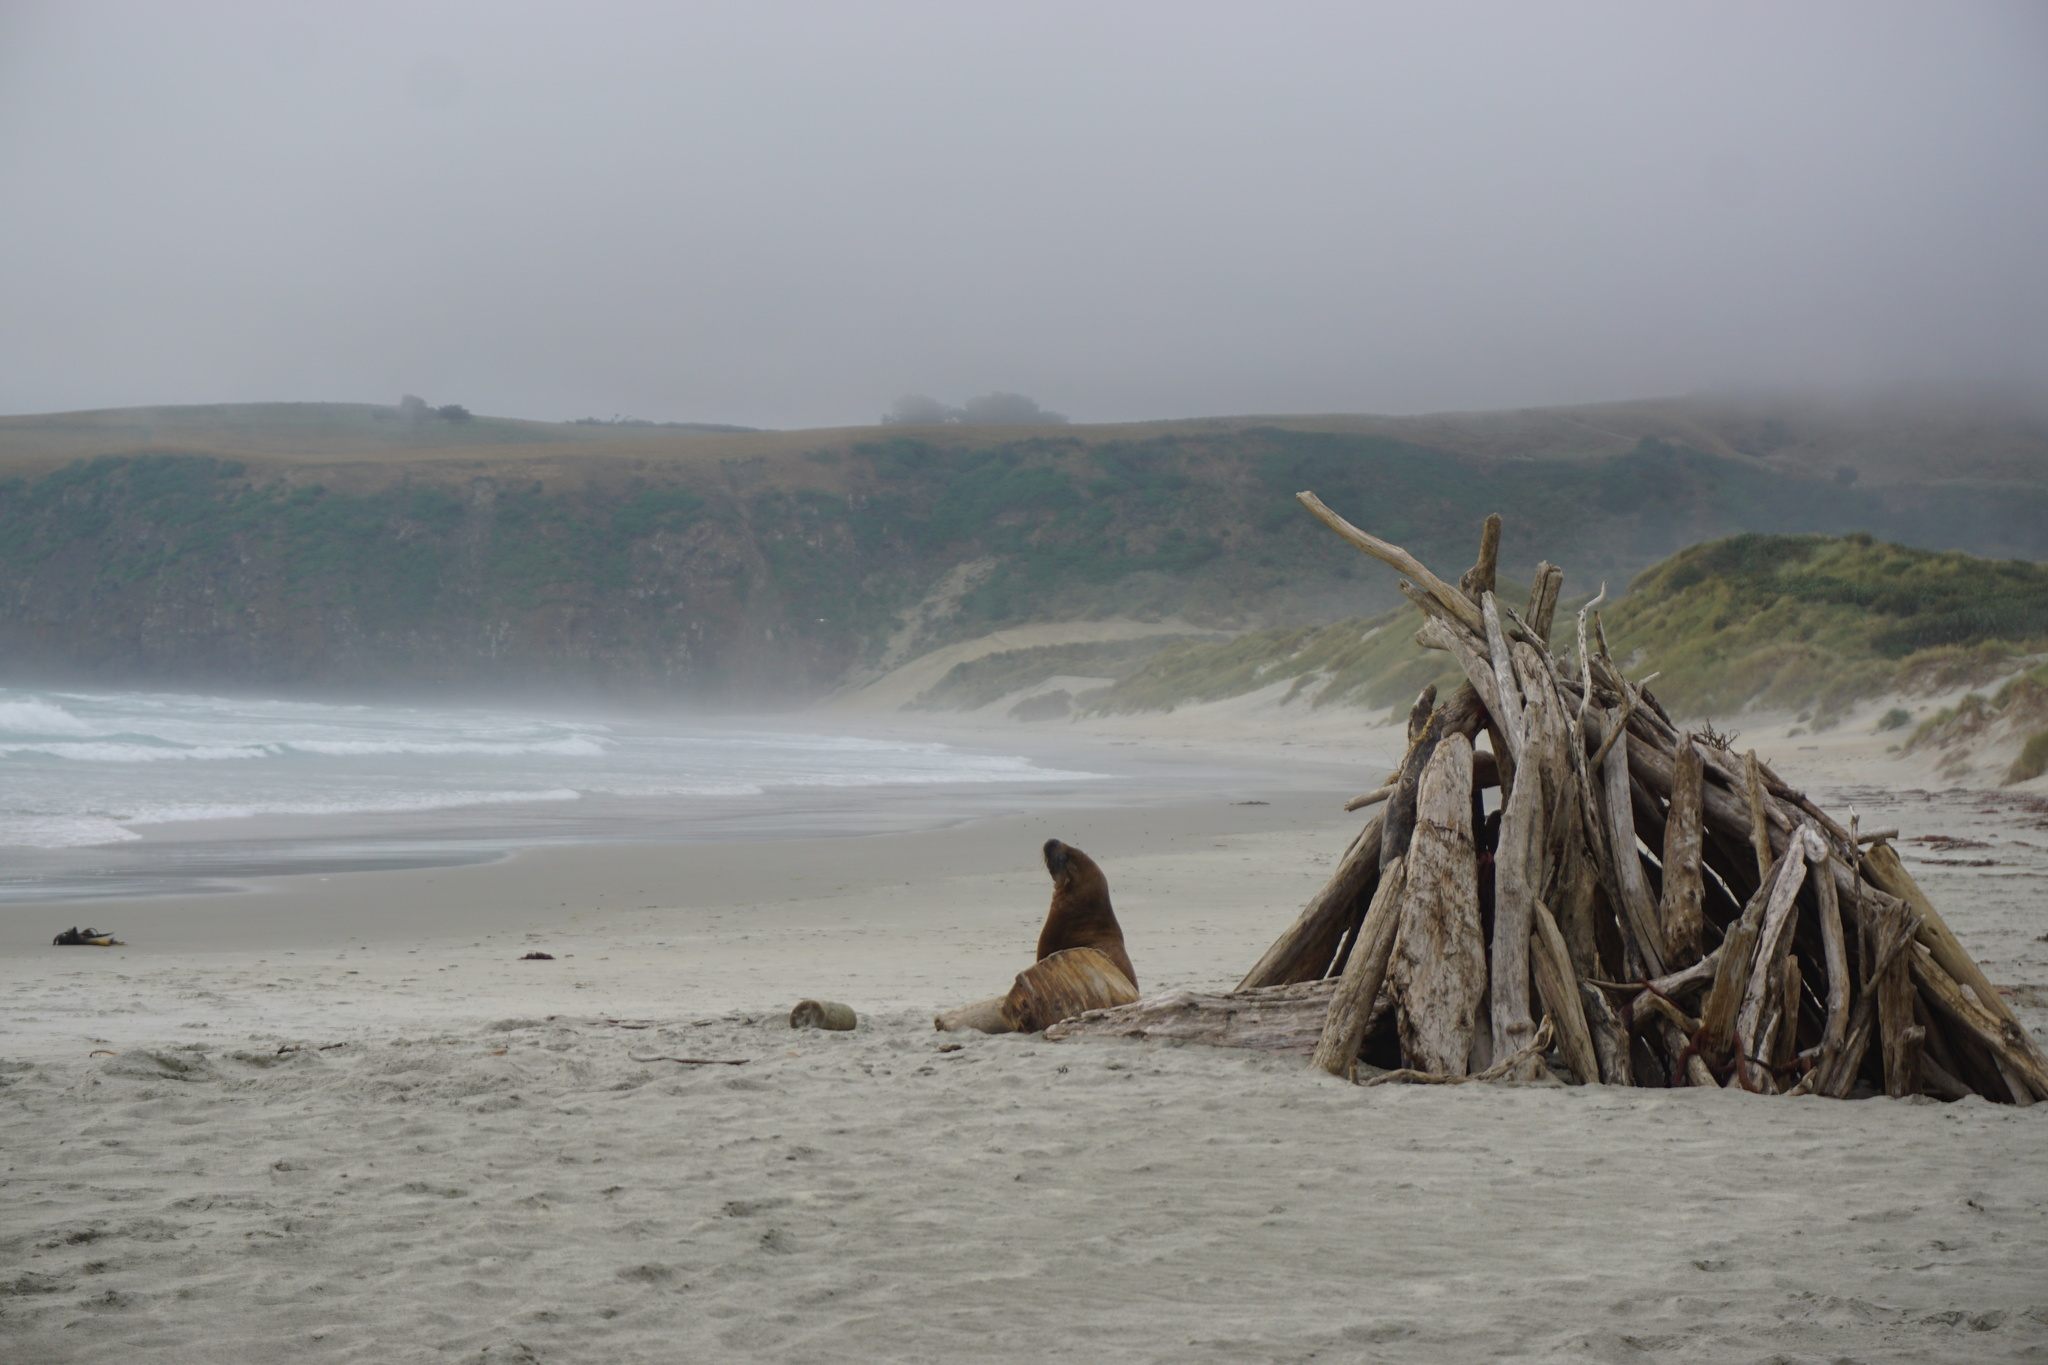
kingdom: Animalia
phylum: Chordata
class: Mammalia
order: Carnivora
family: Otariidae
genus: Phocarctos
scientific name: Phocarctos hookeri
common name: New zealand sea lion
